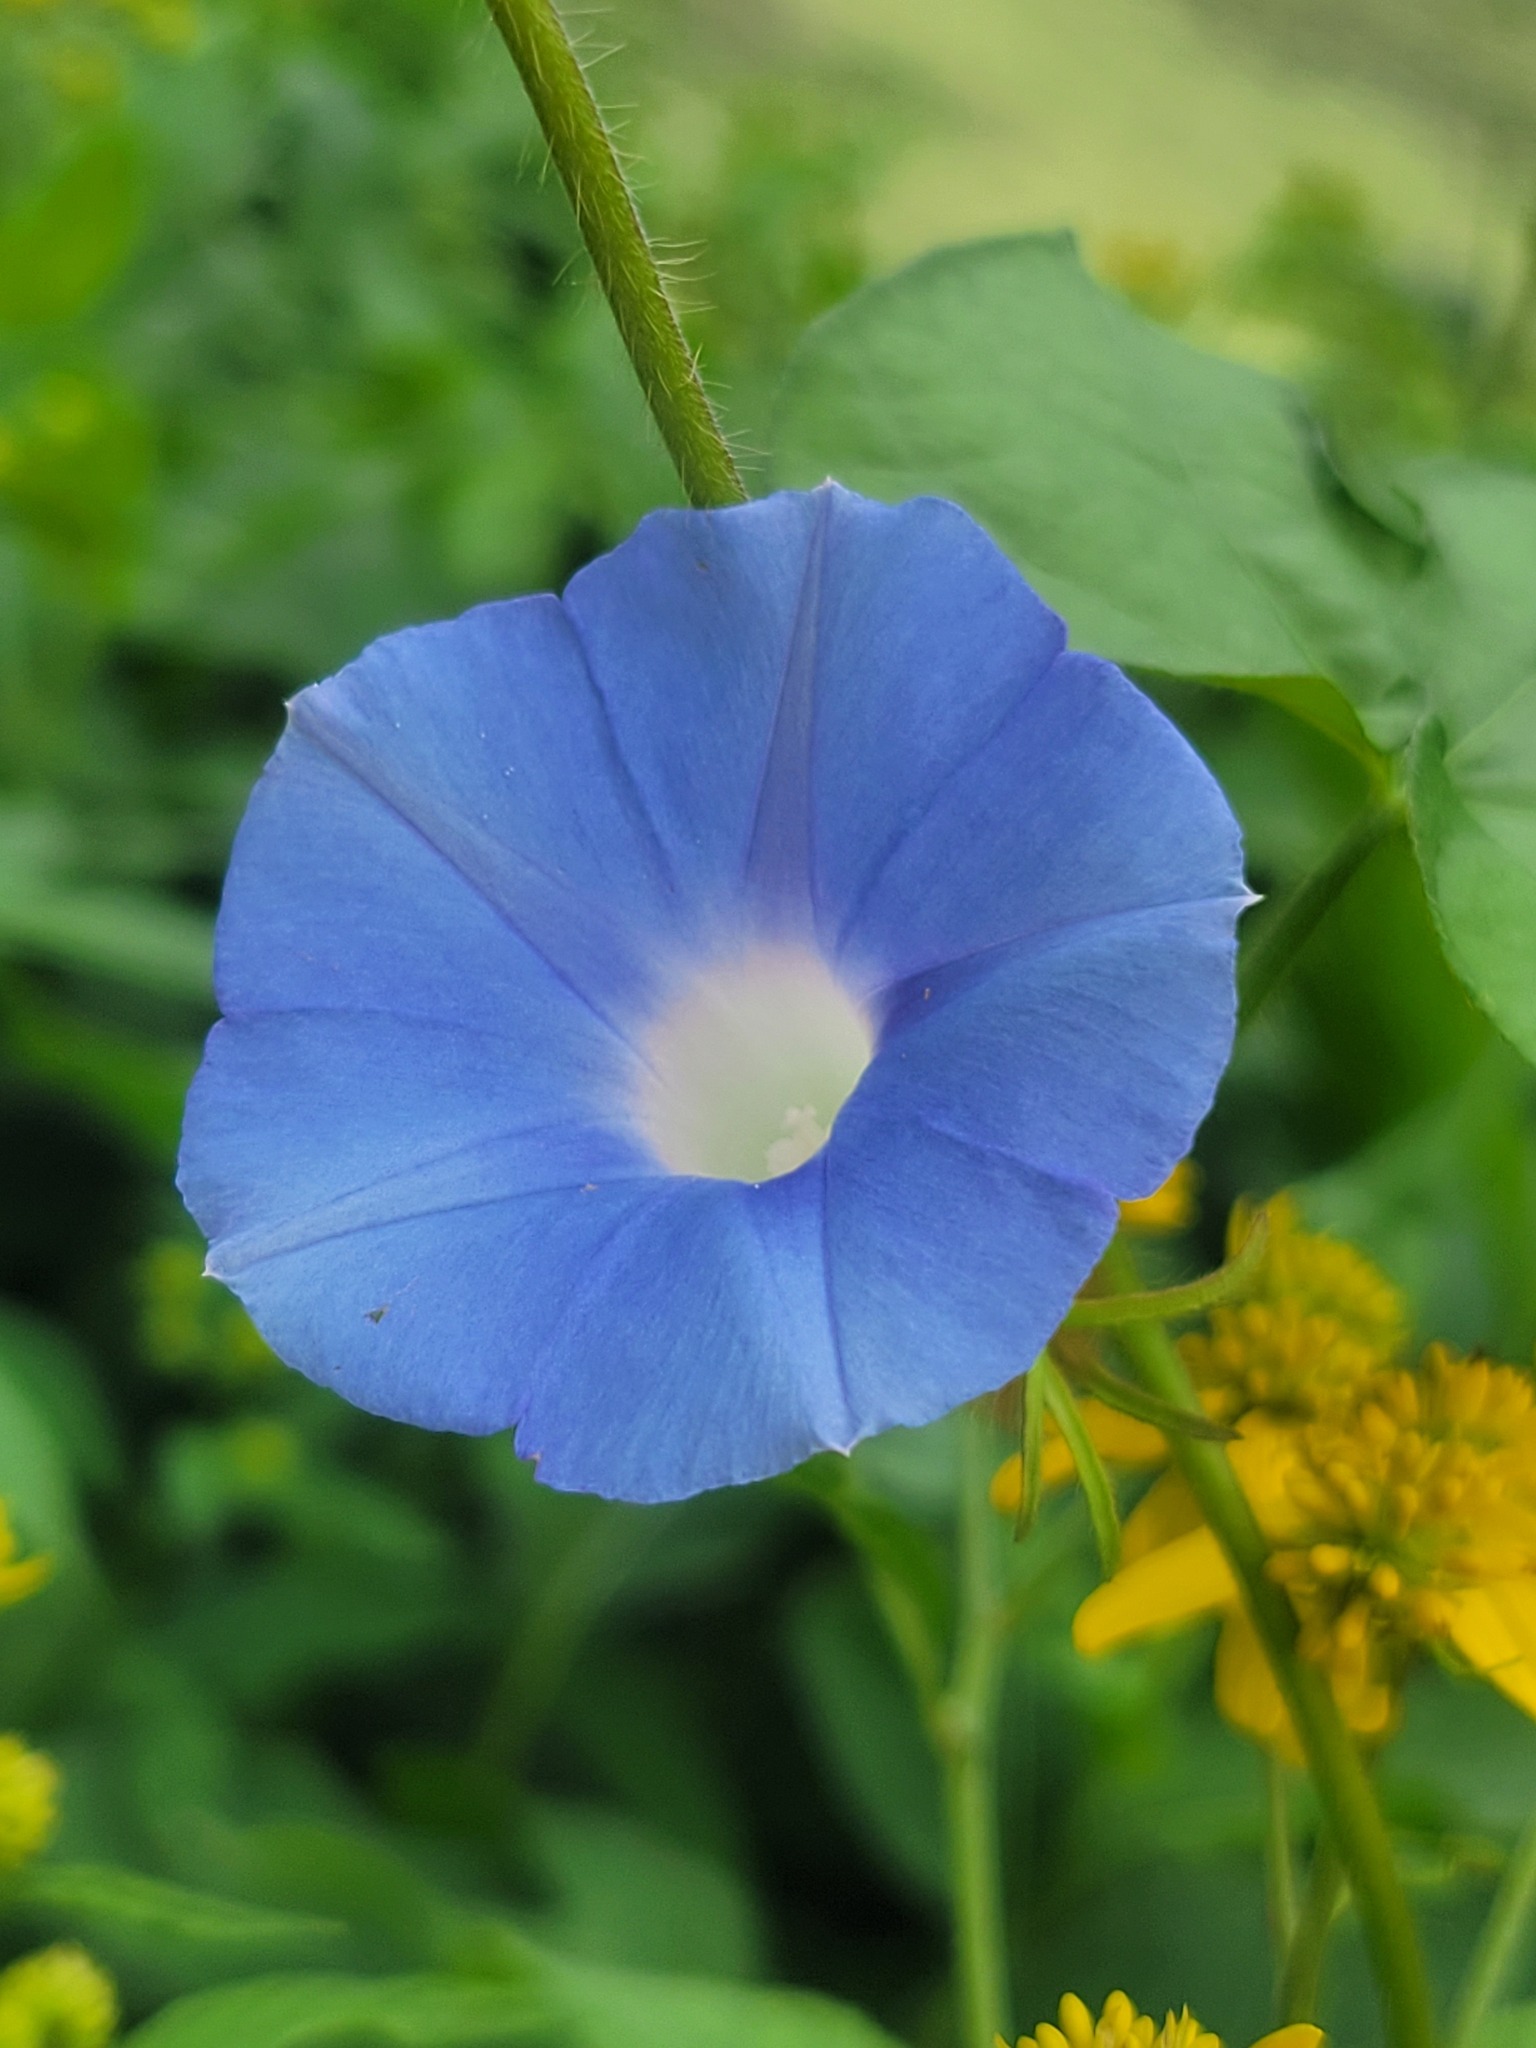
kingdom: Plantae
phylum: Tracheophyta
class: Magnoliopsida
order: Solanales
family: Convolvulaceae
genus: Ipomoea
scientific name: Ipomoea hederacea
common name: Ivy-leaved morning-glory
